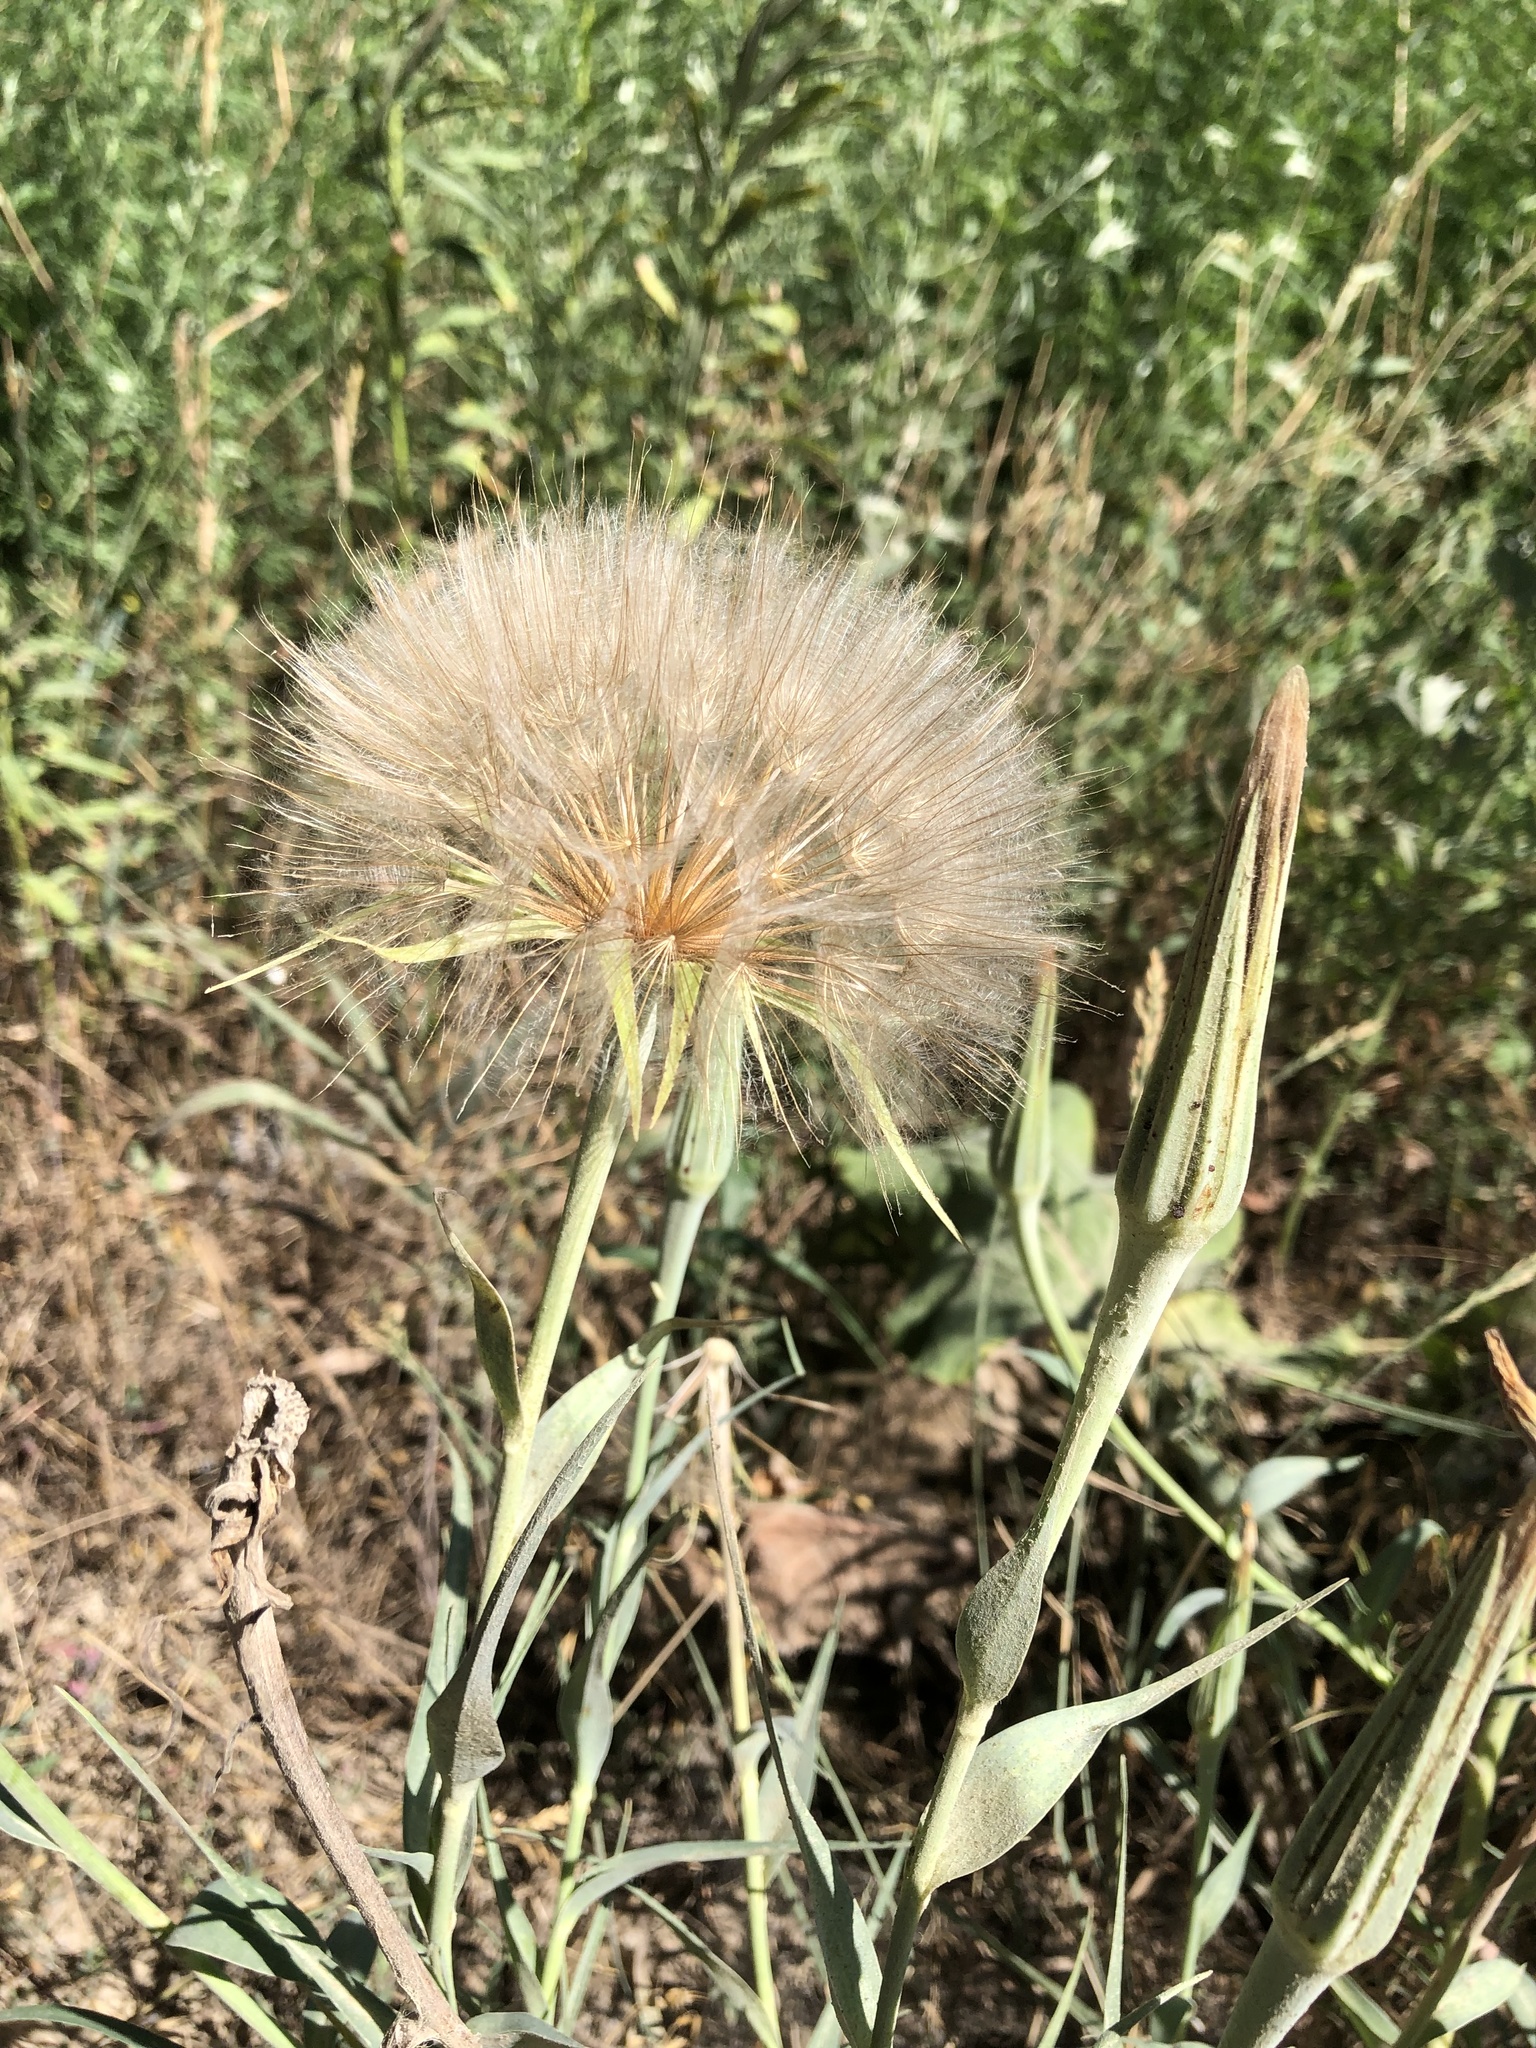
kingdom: Plantae
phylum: Tracheophyta
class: Magnoliopsida
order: Asterales
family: Asteraceae
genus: Tragopogon
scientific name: Tragopogon dubius
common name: Yellow salsify
